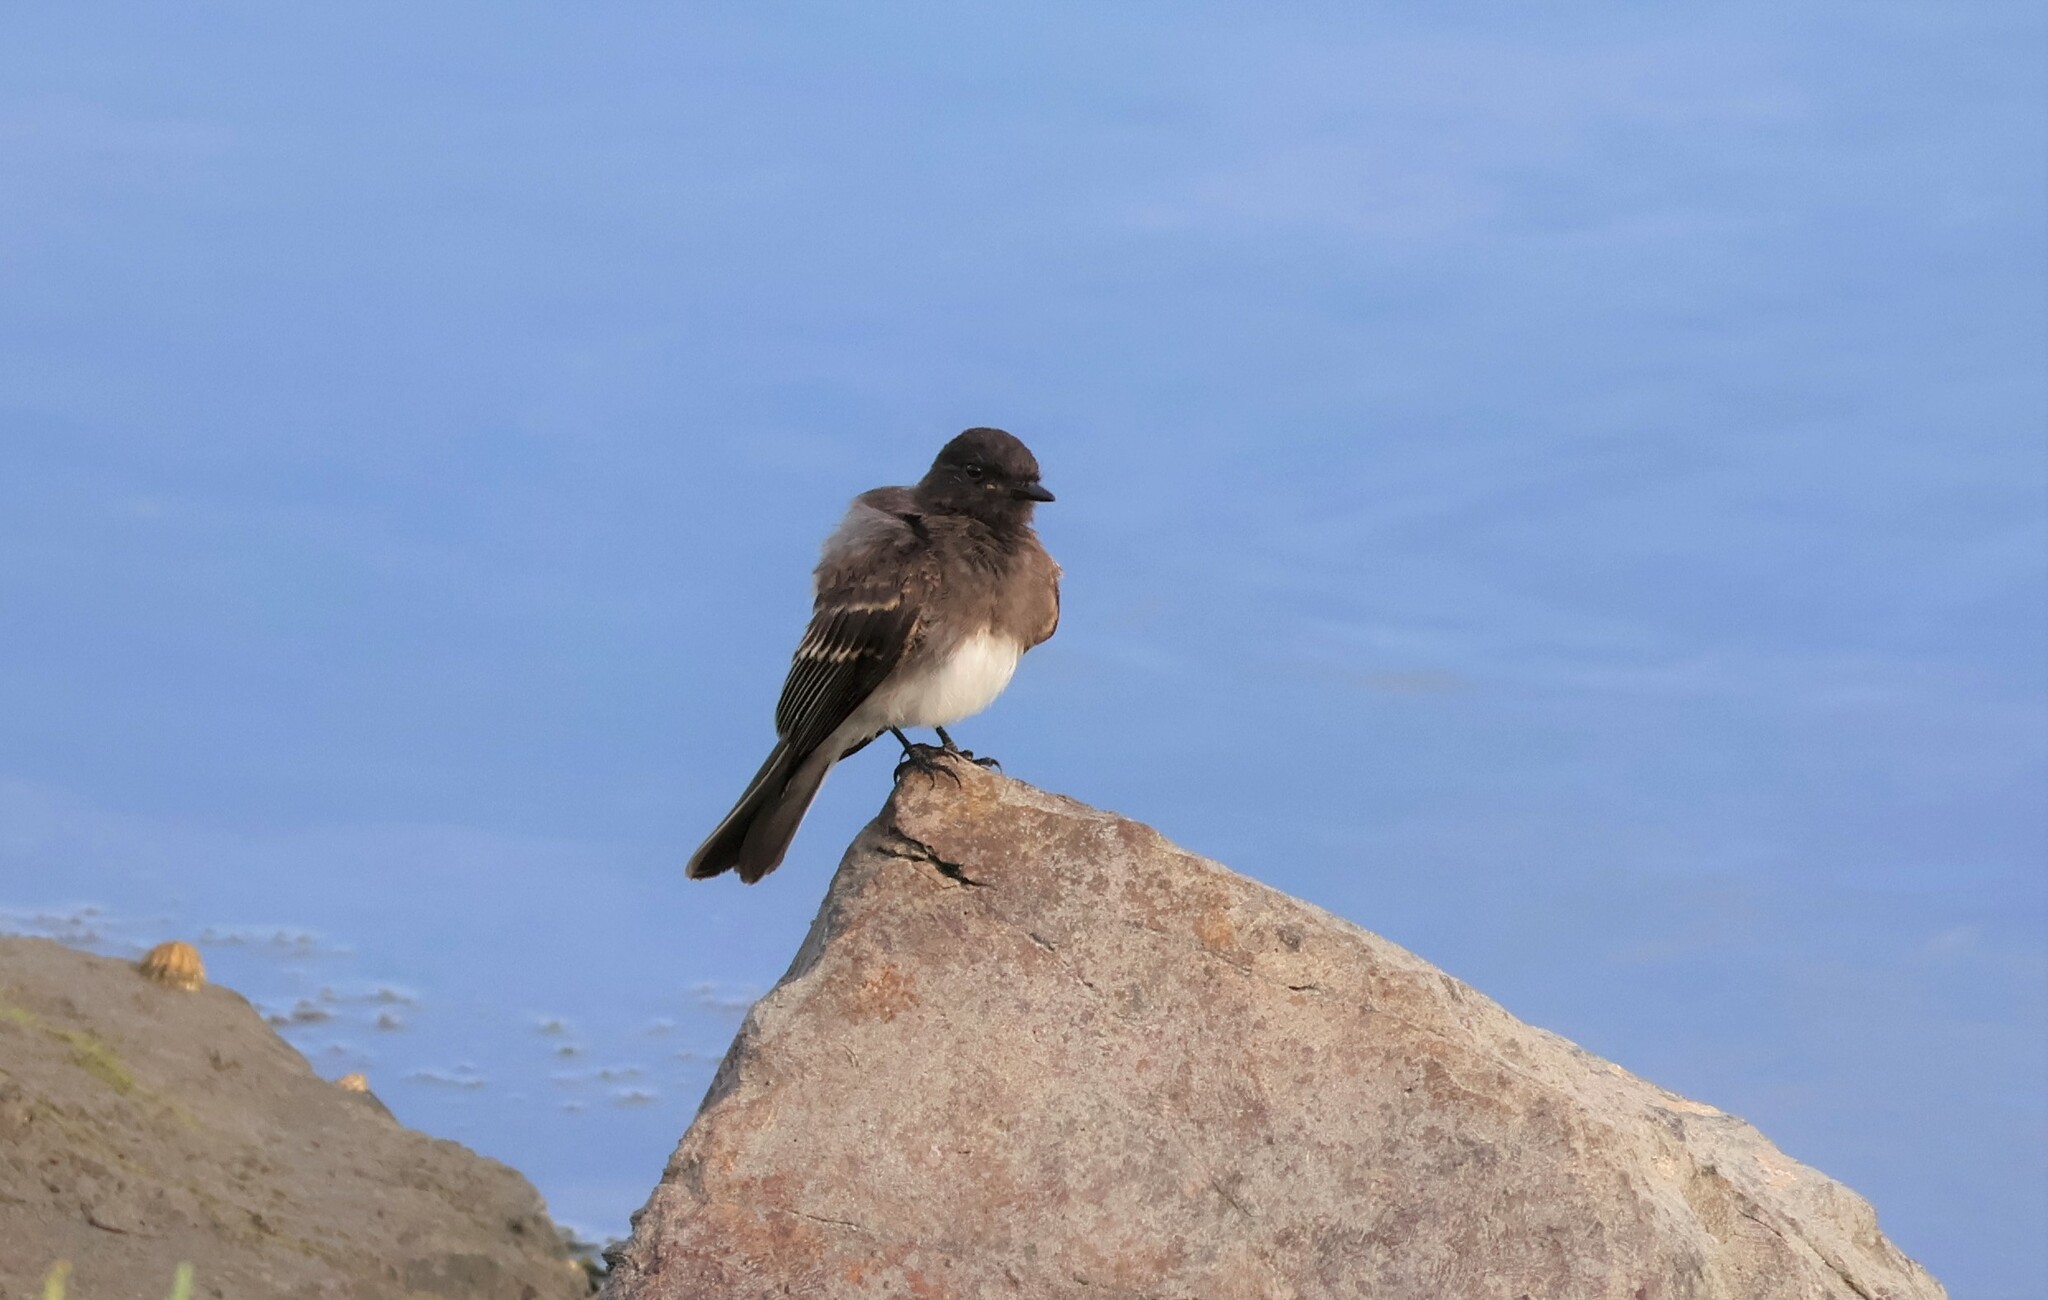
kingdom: Animalia
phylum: Chordata
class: Aves
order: Passeriformes
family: Tyrannidae
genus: Sayornis
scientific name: Sayornis nigricans
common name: Black phoebe
